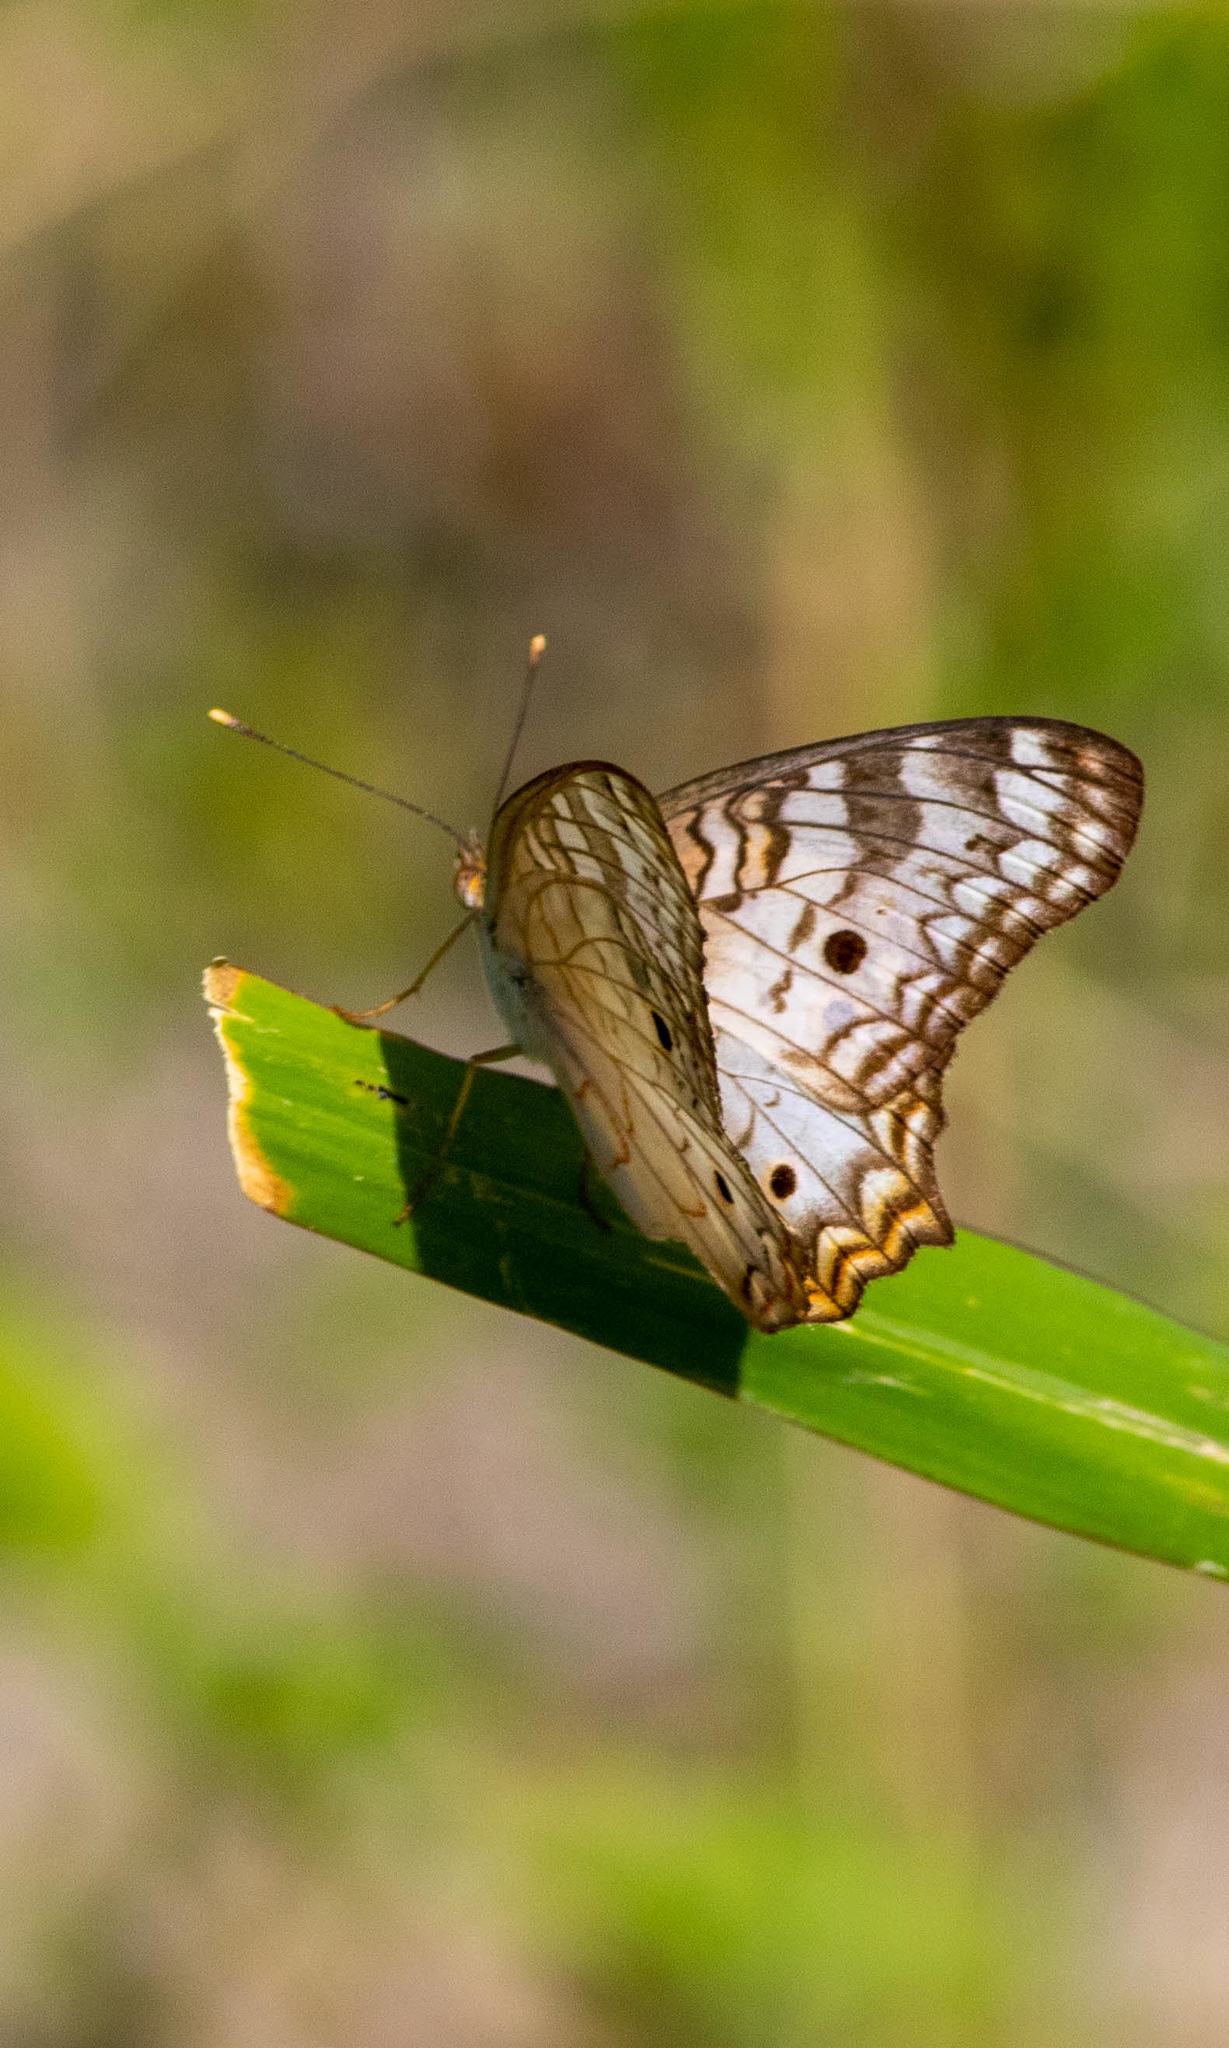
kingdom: Animalia
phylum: Arthropoda
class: Insecta
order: Lepidoptera
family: Nymphalidae
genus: Anartia
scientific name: Anartia jatrophae
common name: White peacock
